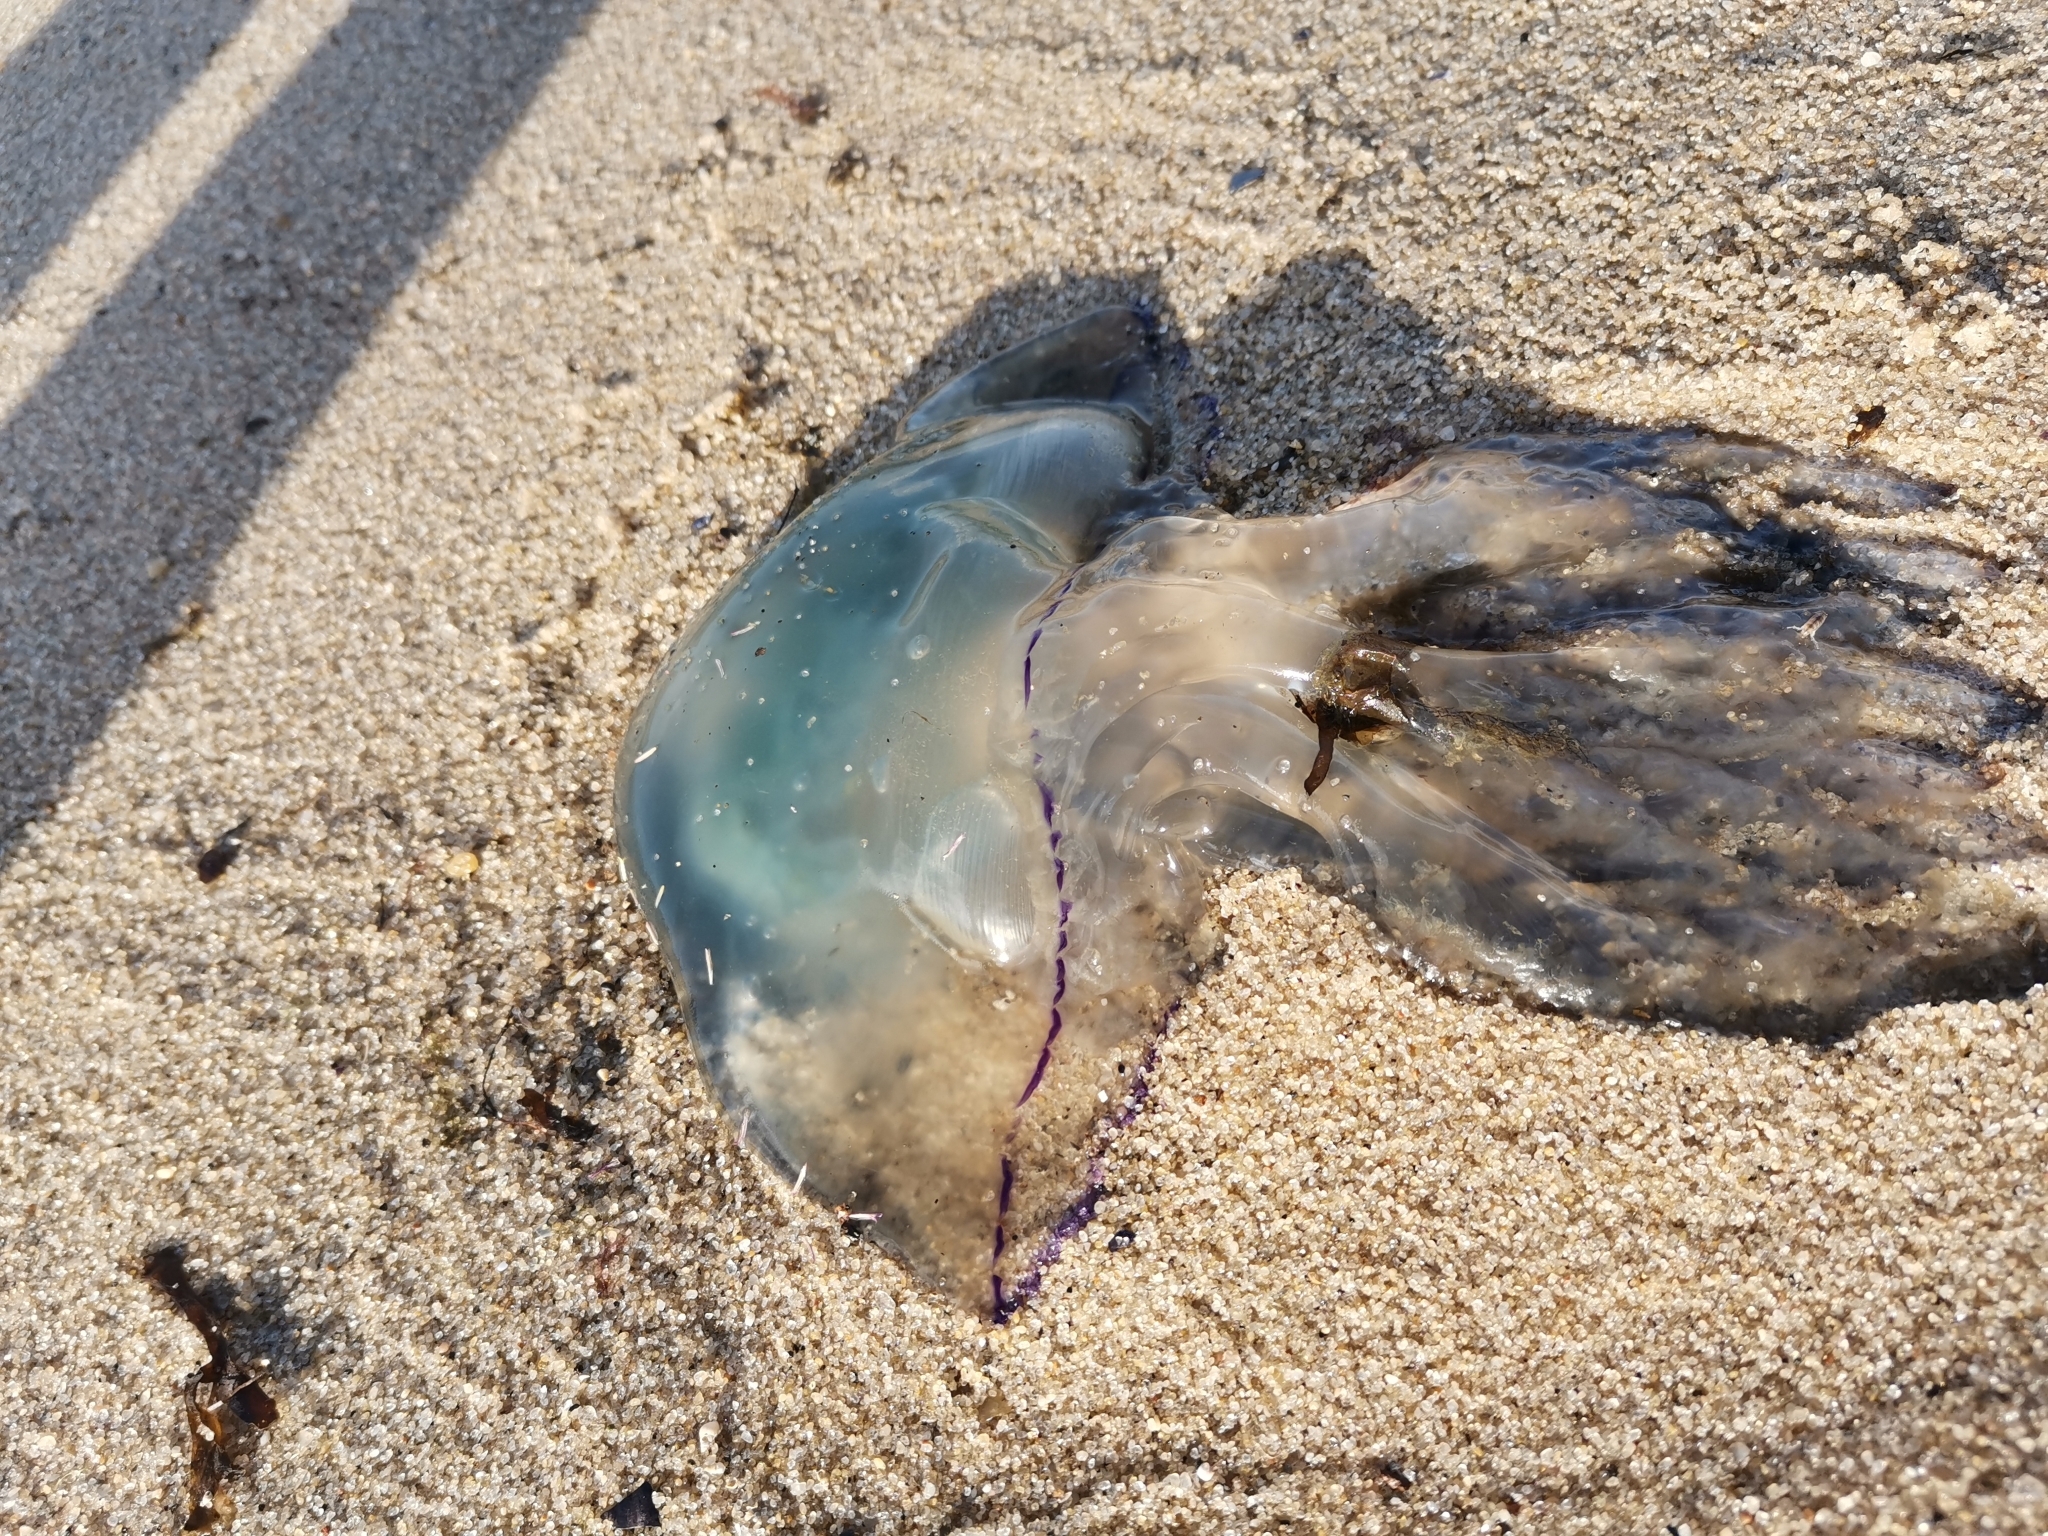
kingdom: Animalia
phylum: Cnidaria
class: Scyphozoa
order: Rhizostomeae
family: Rhizostomatidae
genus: Rhizostoma
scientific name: Rhizostoma octopus
